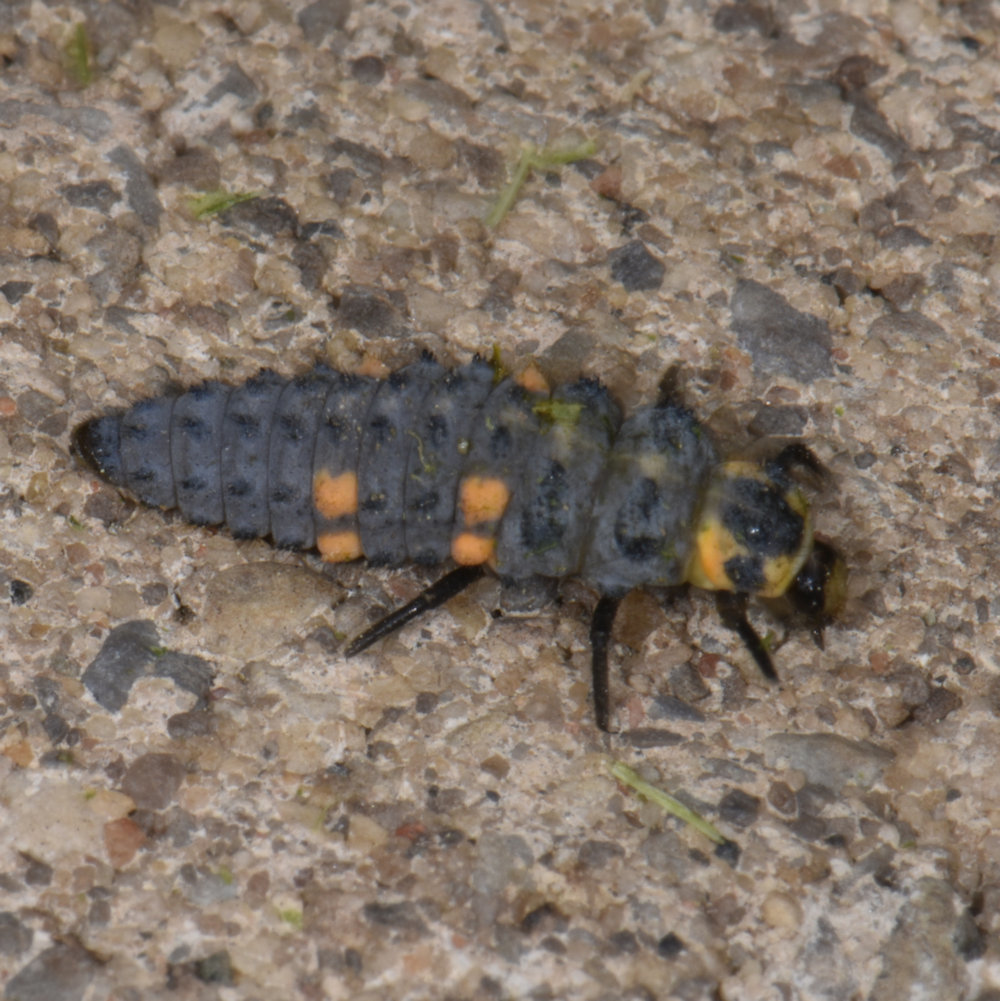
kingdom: Animalia
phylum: Arthropoda
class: Insecta
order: Coleoptera
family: Coccinellidae
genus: Coccinella
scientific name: Coccinella septempunctata
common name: Sevenspotted lady beetle
